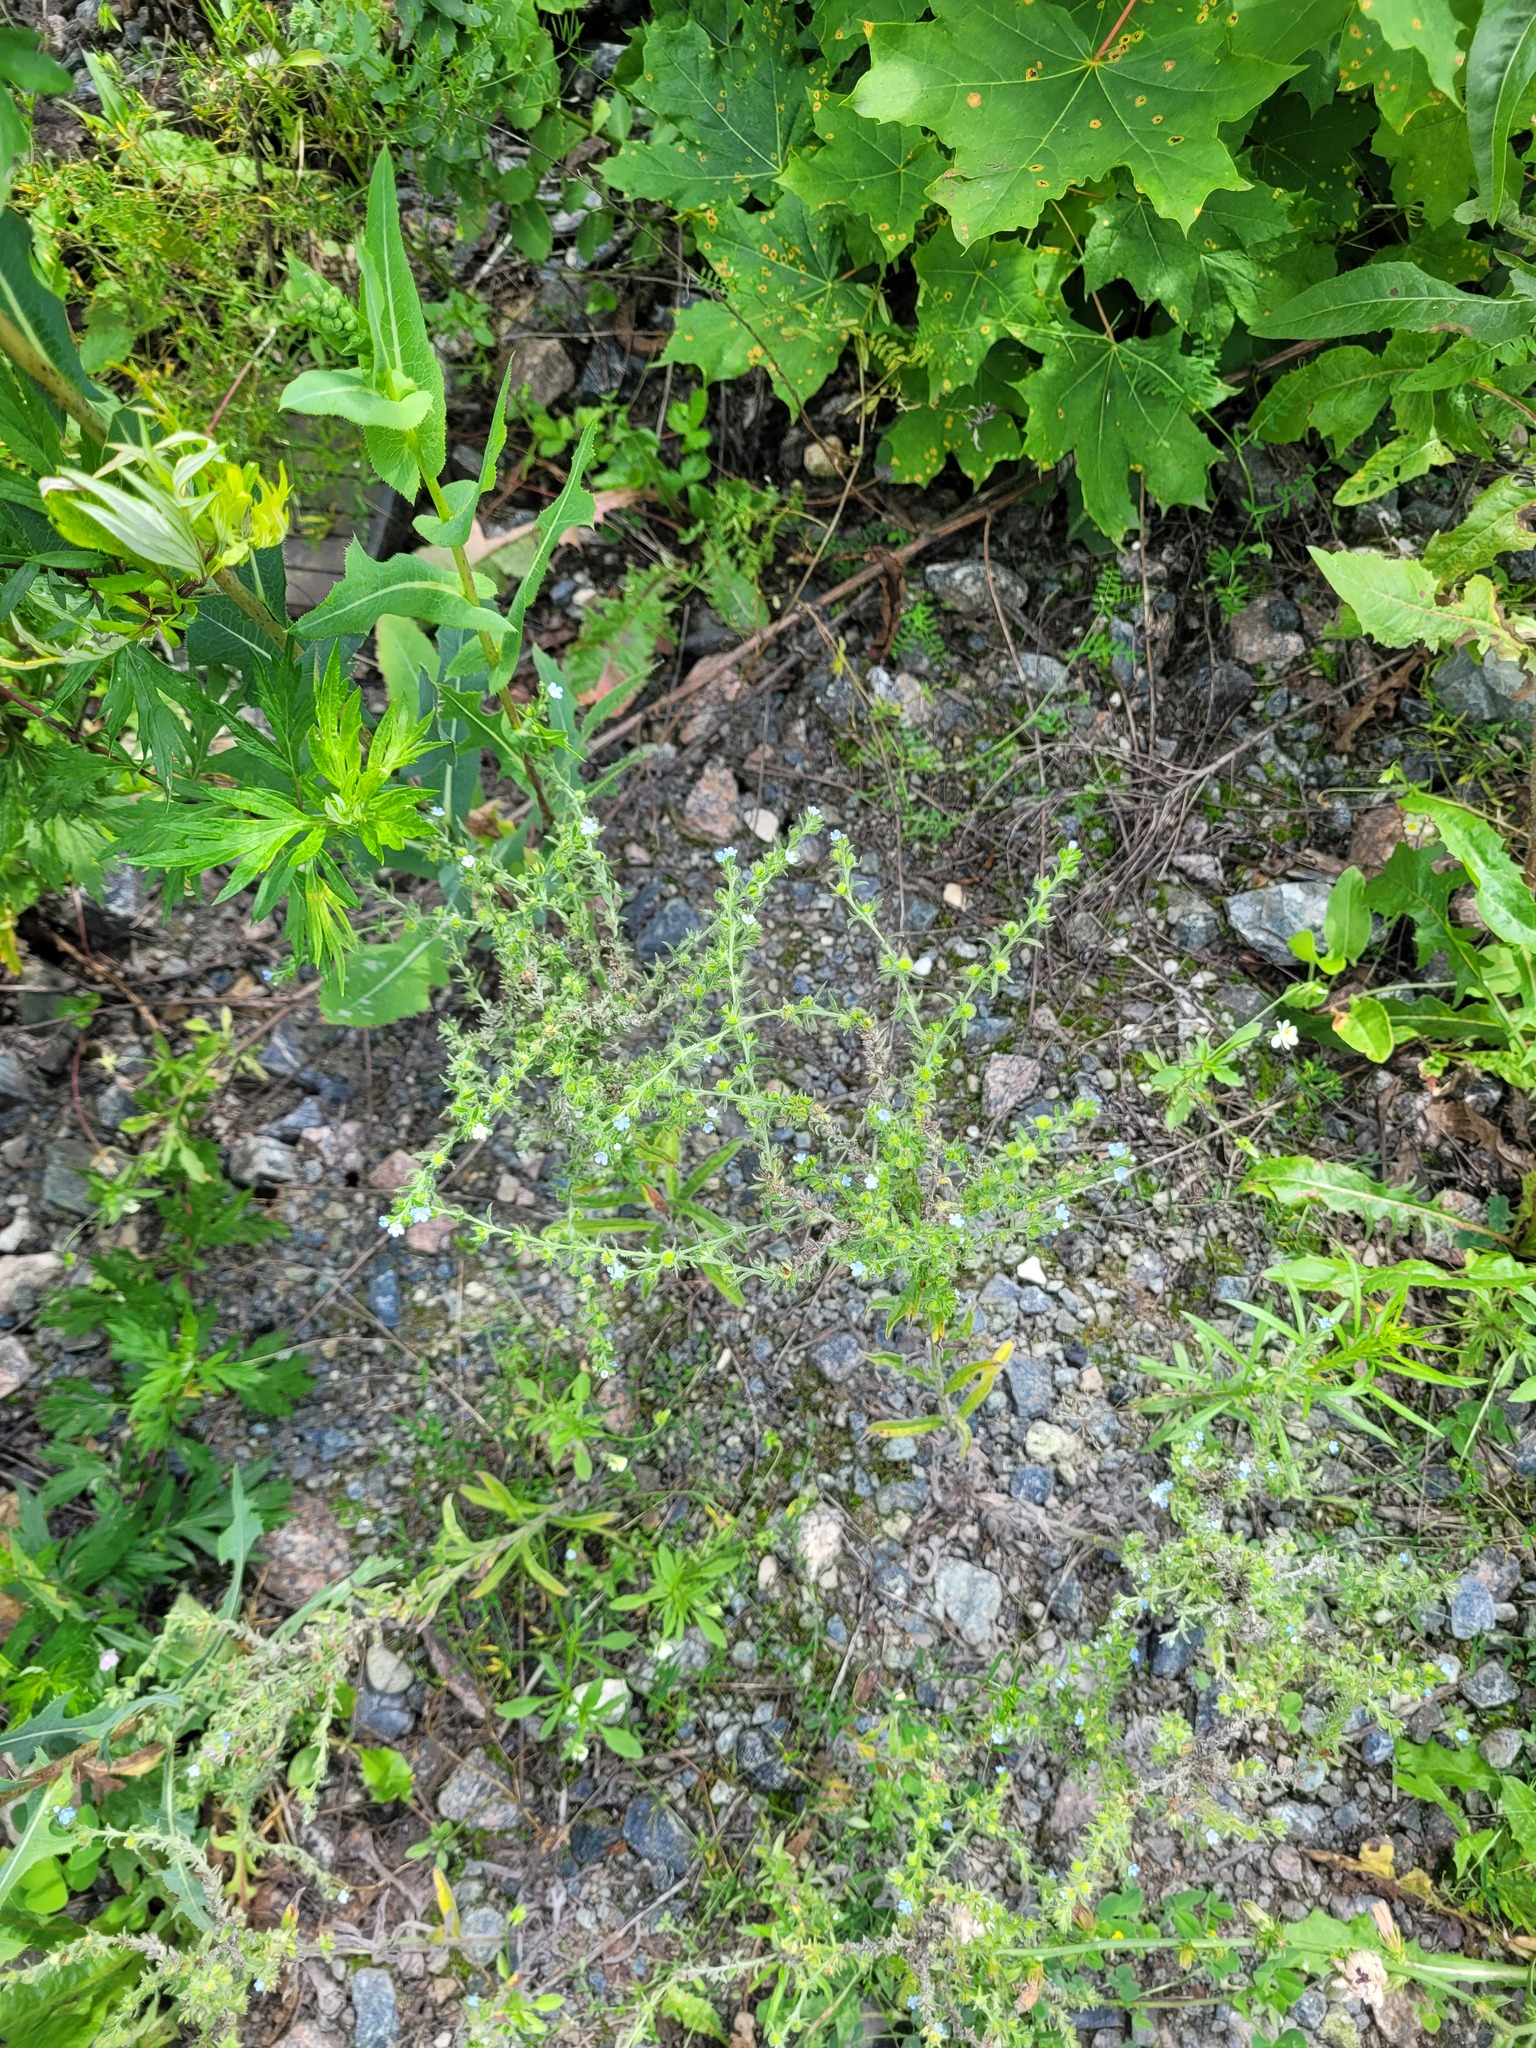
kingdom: Plantae
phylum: Tracheophyta
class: Magnoliopsida
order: Boraginales
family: Boraginaceae
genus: Lappula
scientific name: Lappula squarrosa
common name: European stickseed
